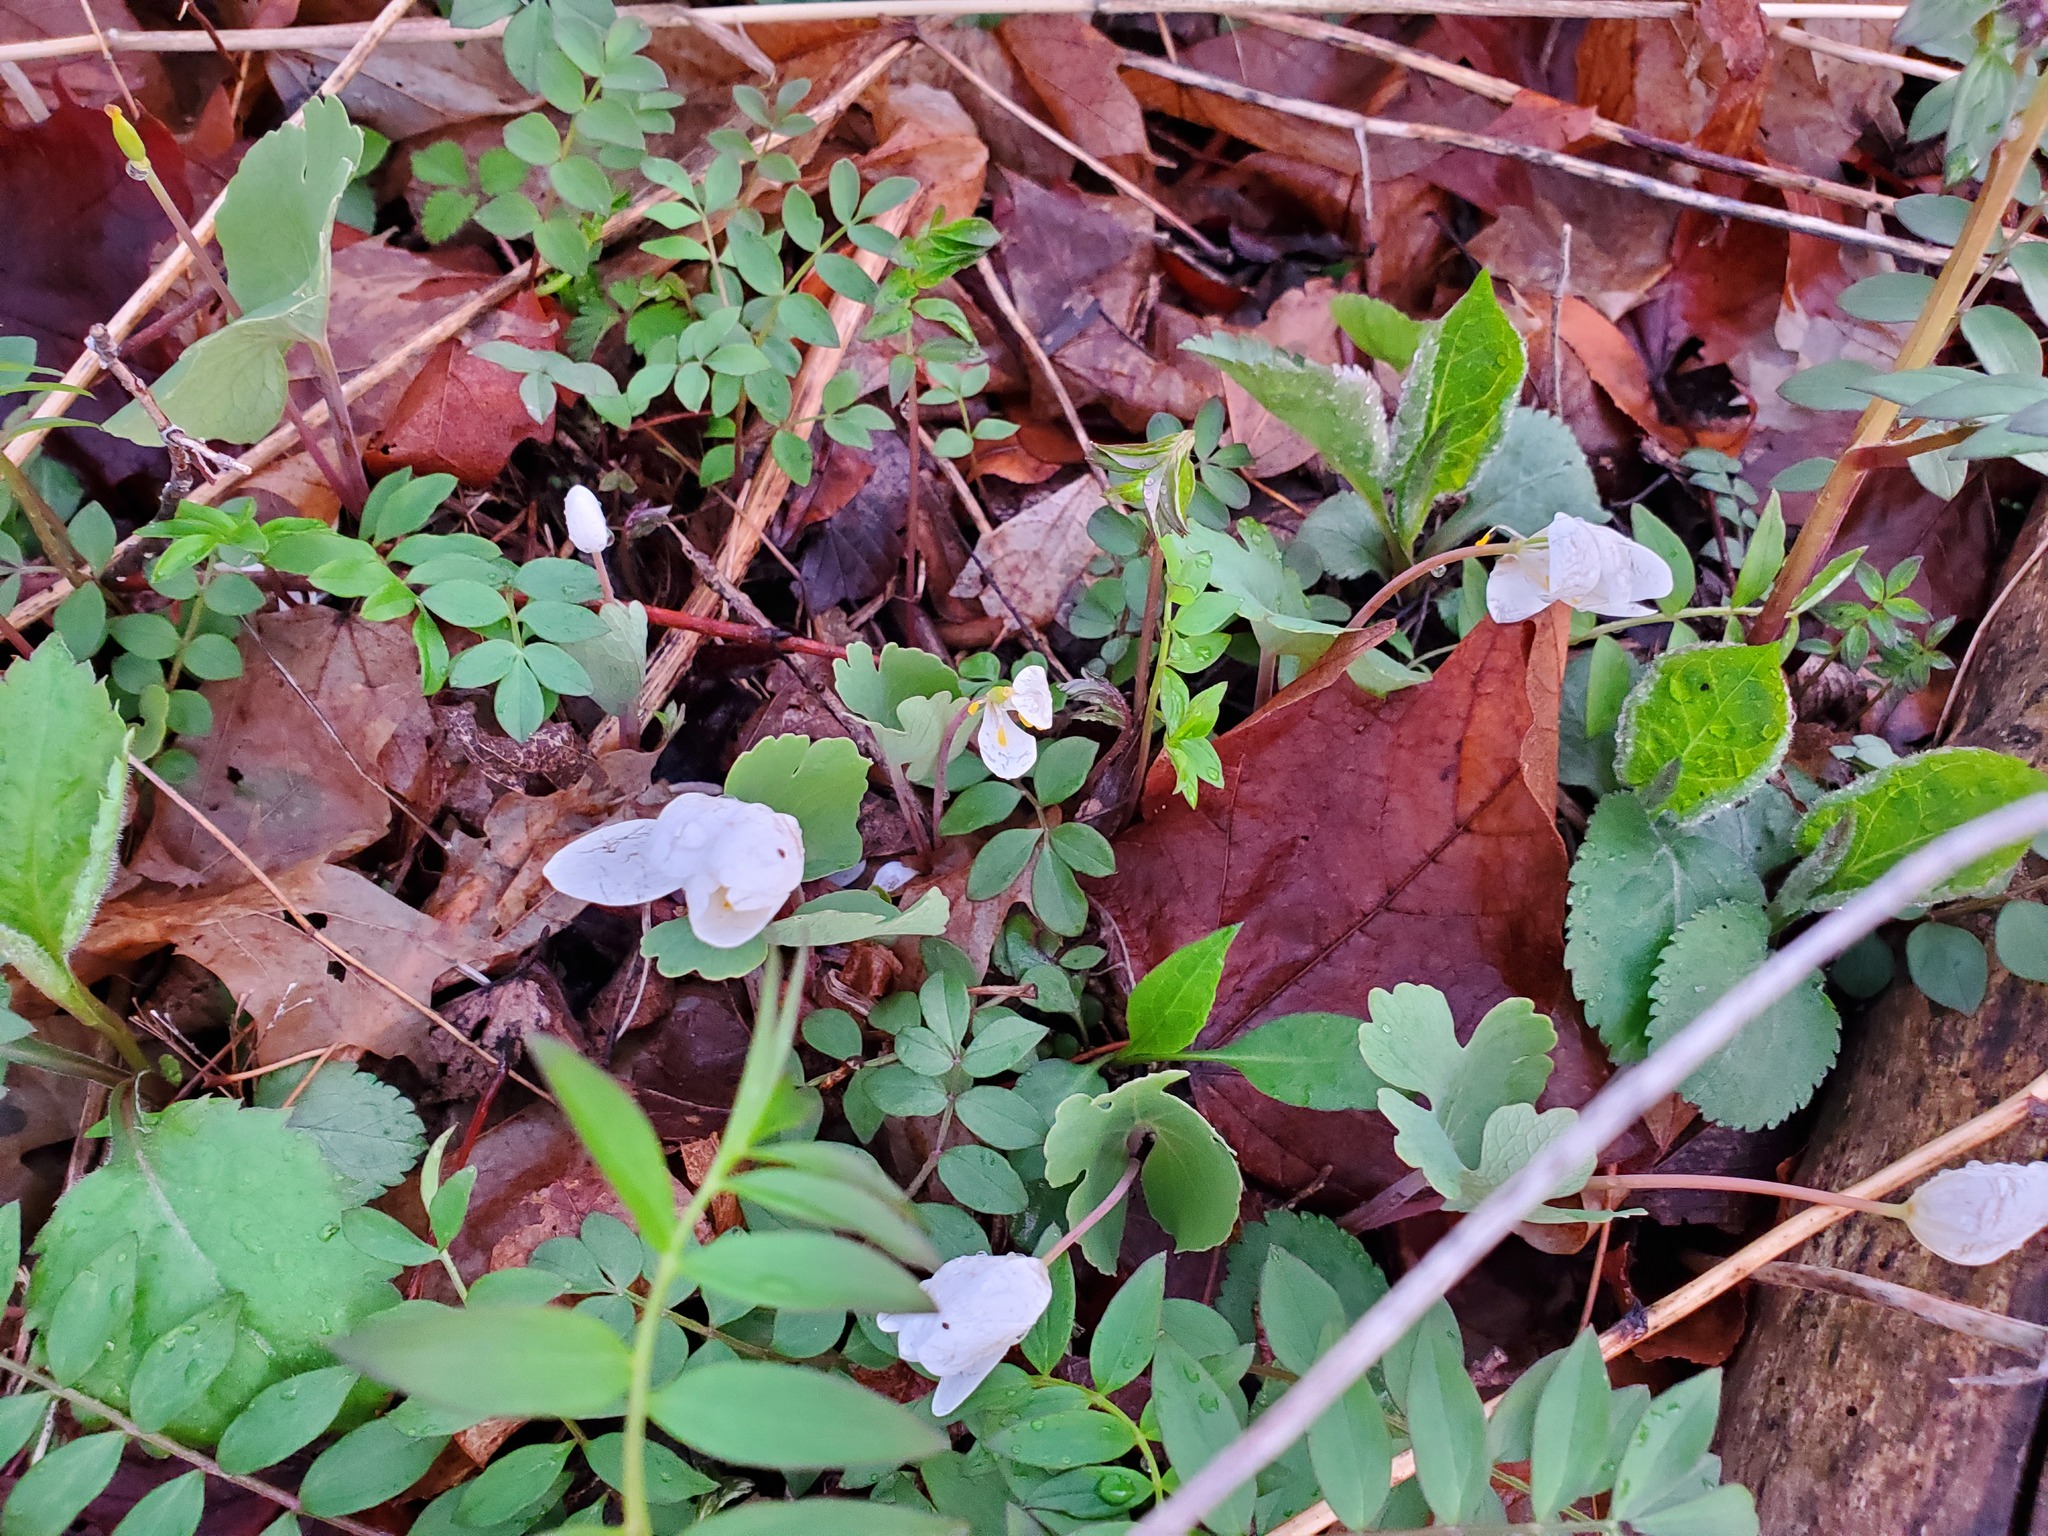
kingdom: Plantae
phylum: Tracheophyta
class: Magnoliopsida
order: Ericales
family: Polemoniaceae
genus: Polemonium
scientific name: Polemonium reptans
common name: Creeping jacob's-ladder
